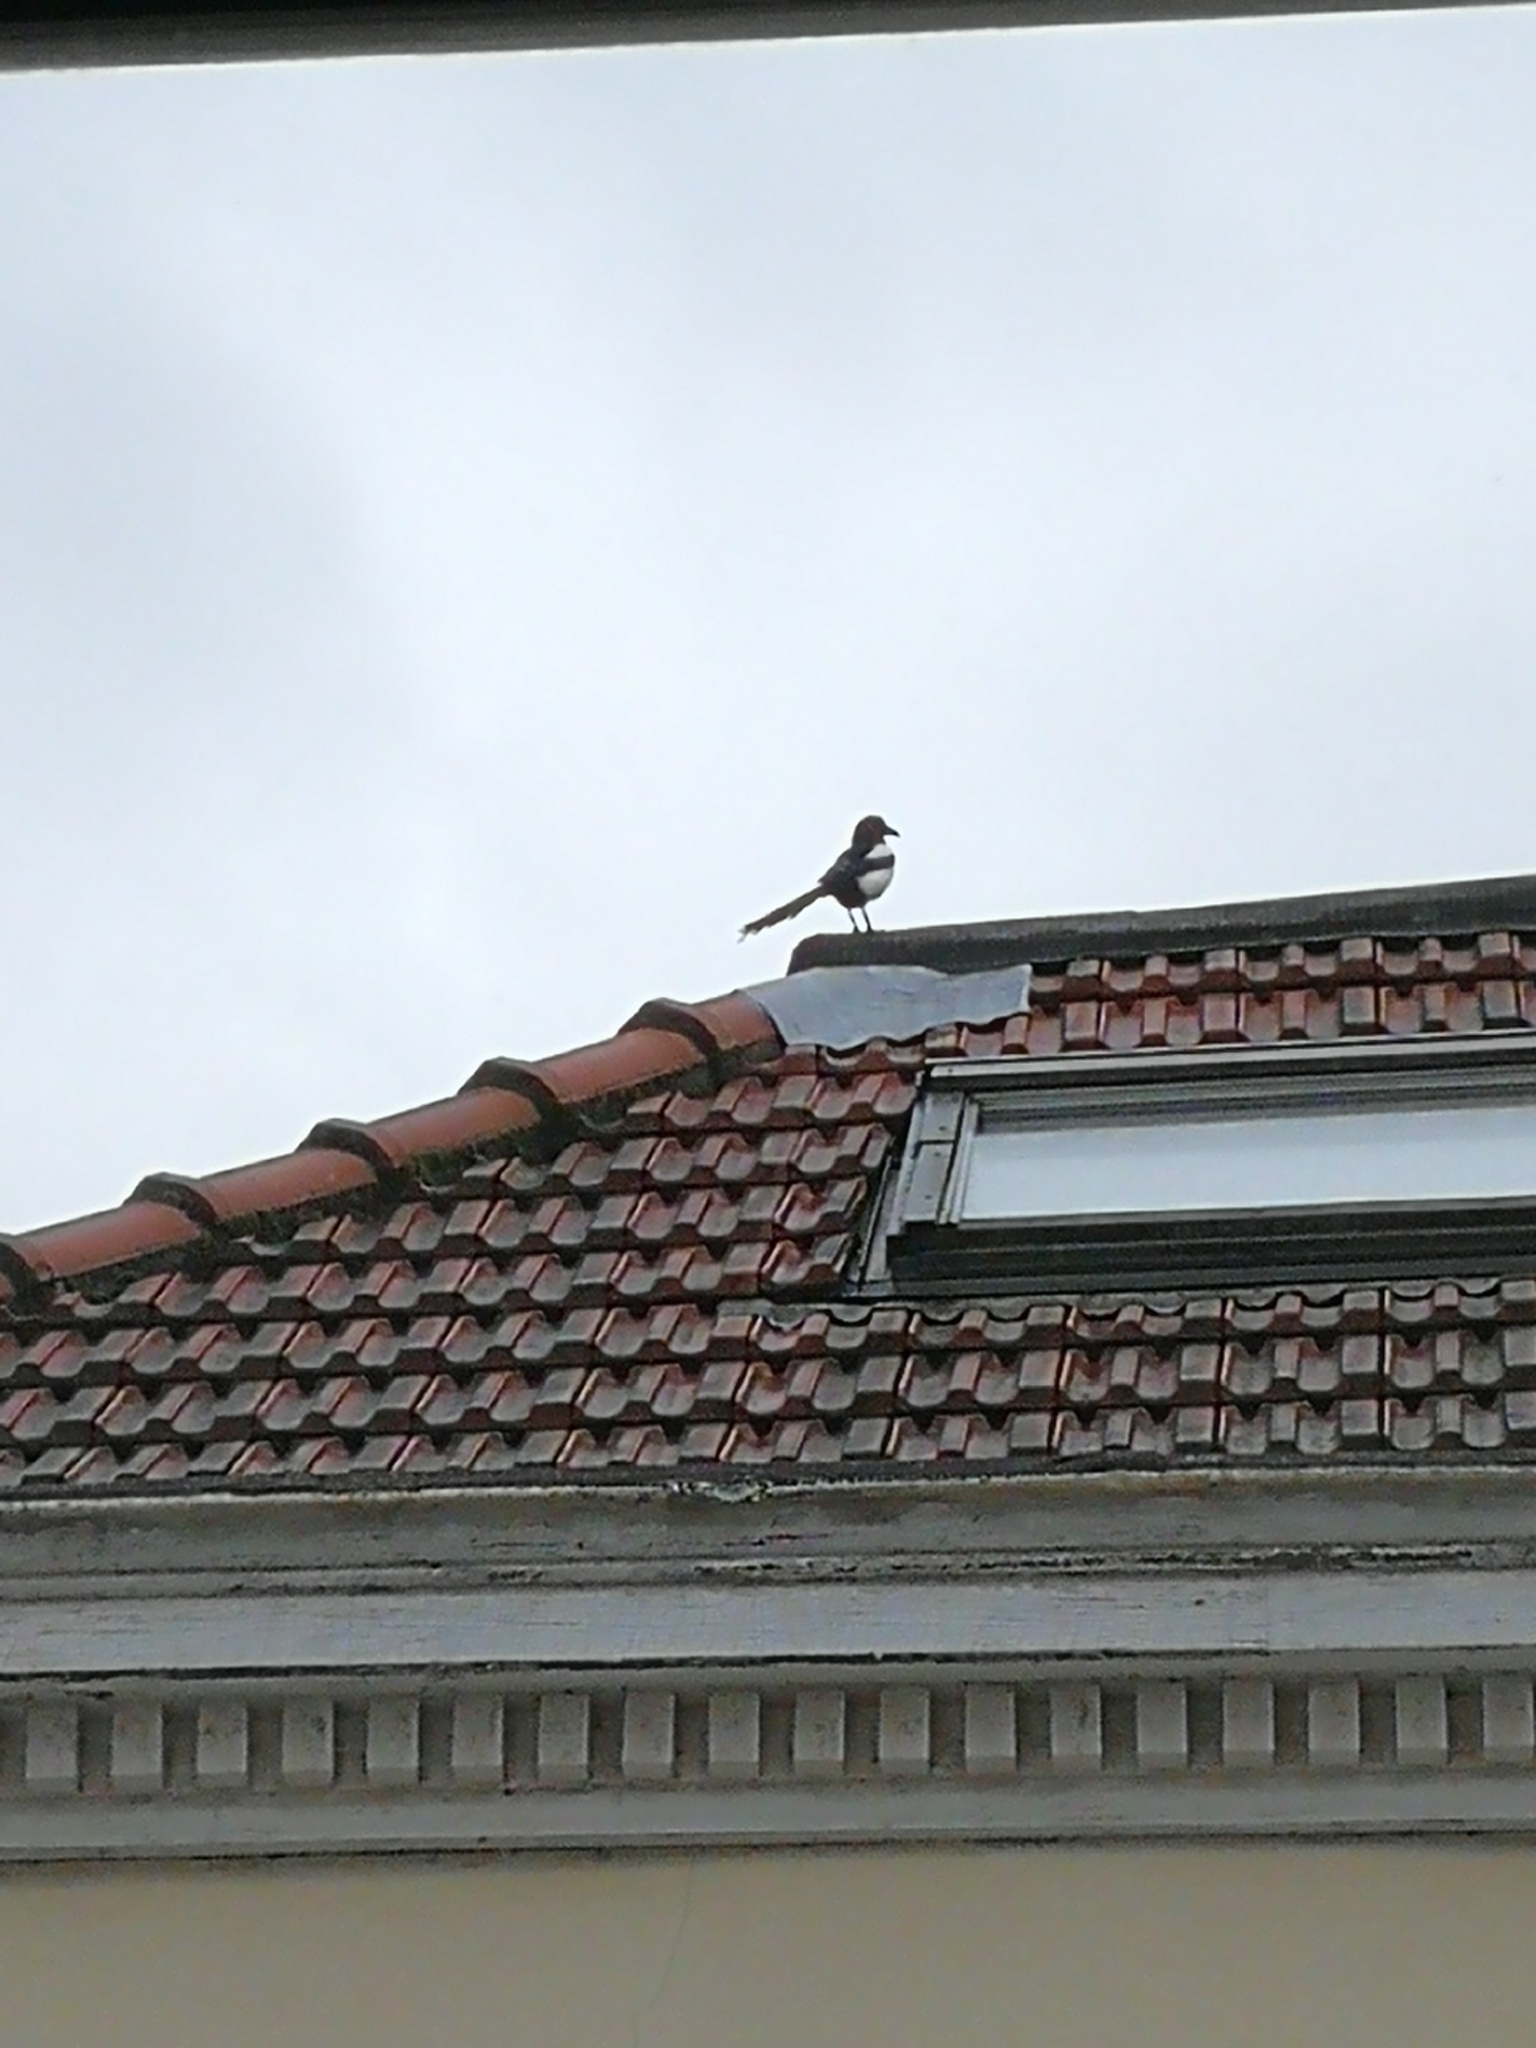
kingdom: Animalia
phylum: Chordata
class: Aves
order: Passeriformes
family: Corvidae
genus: Pica
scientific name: Pica pica
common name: Eurasian magpie
